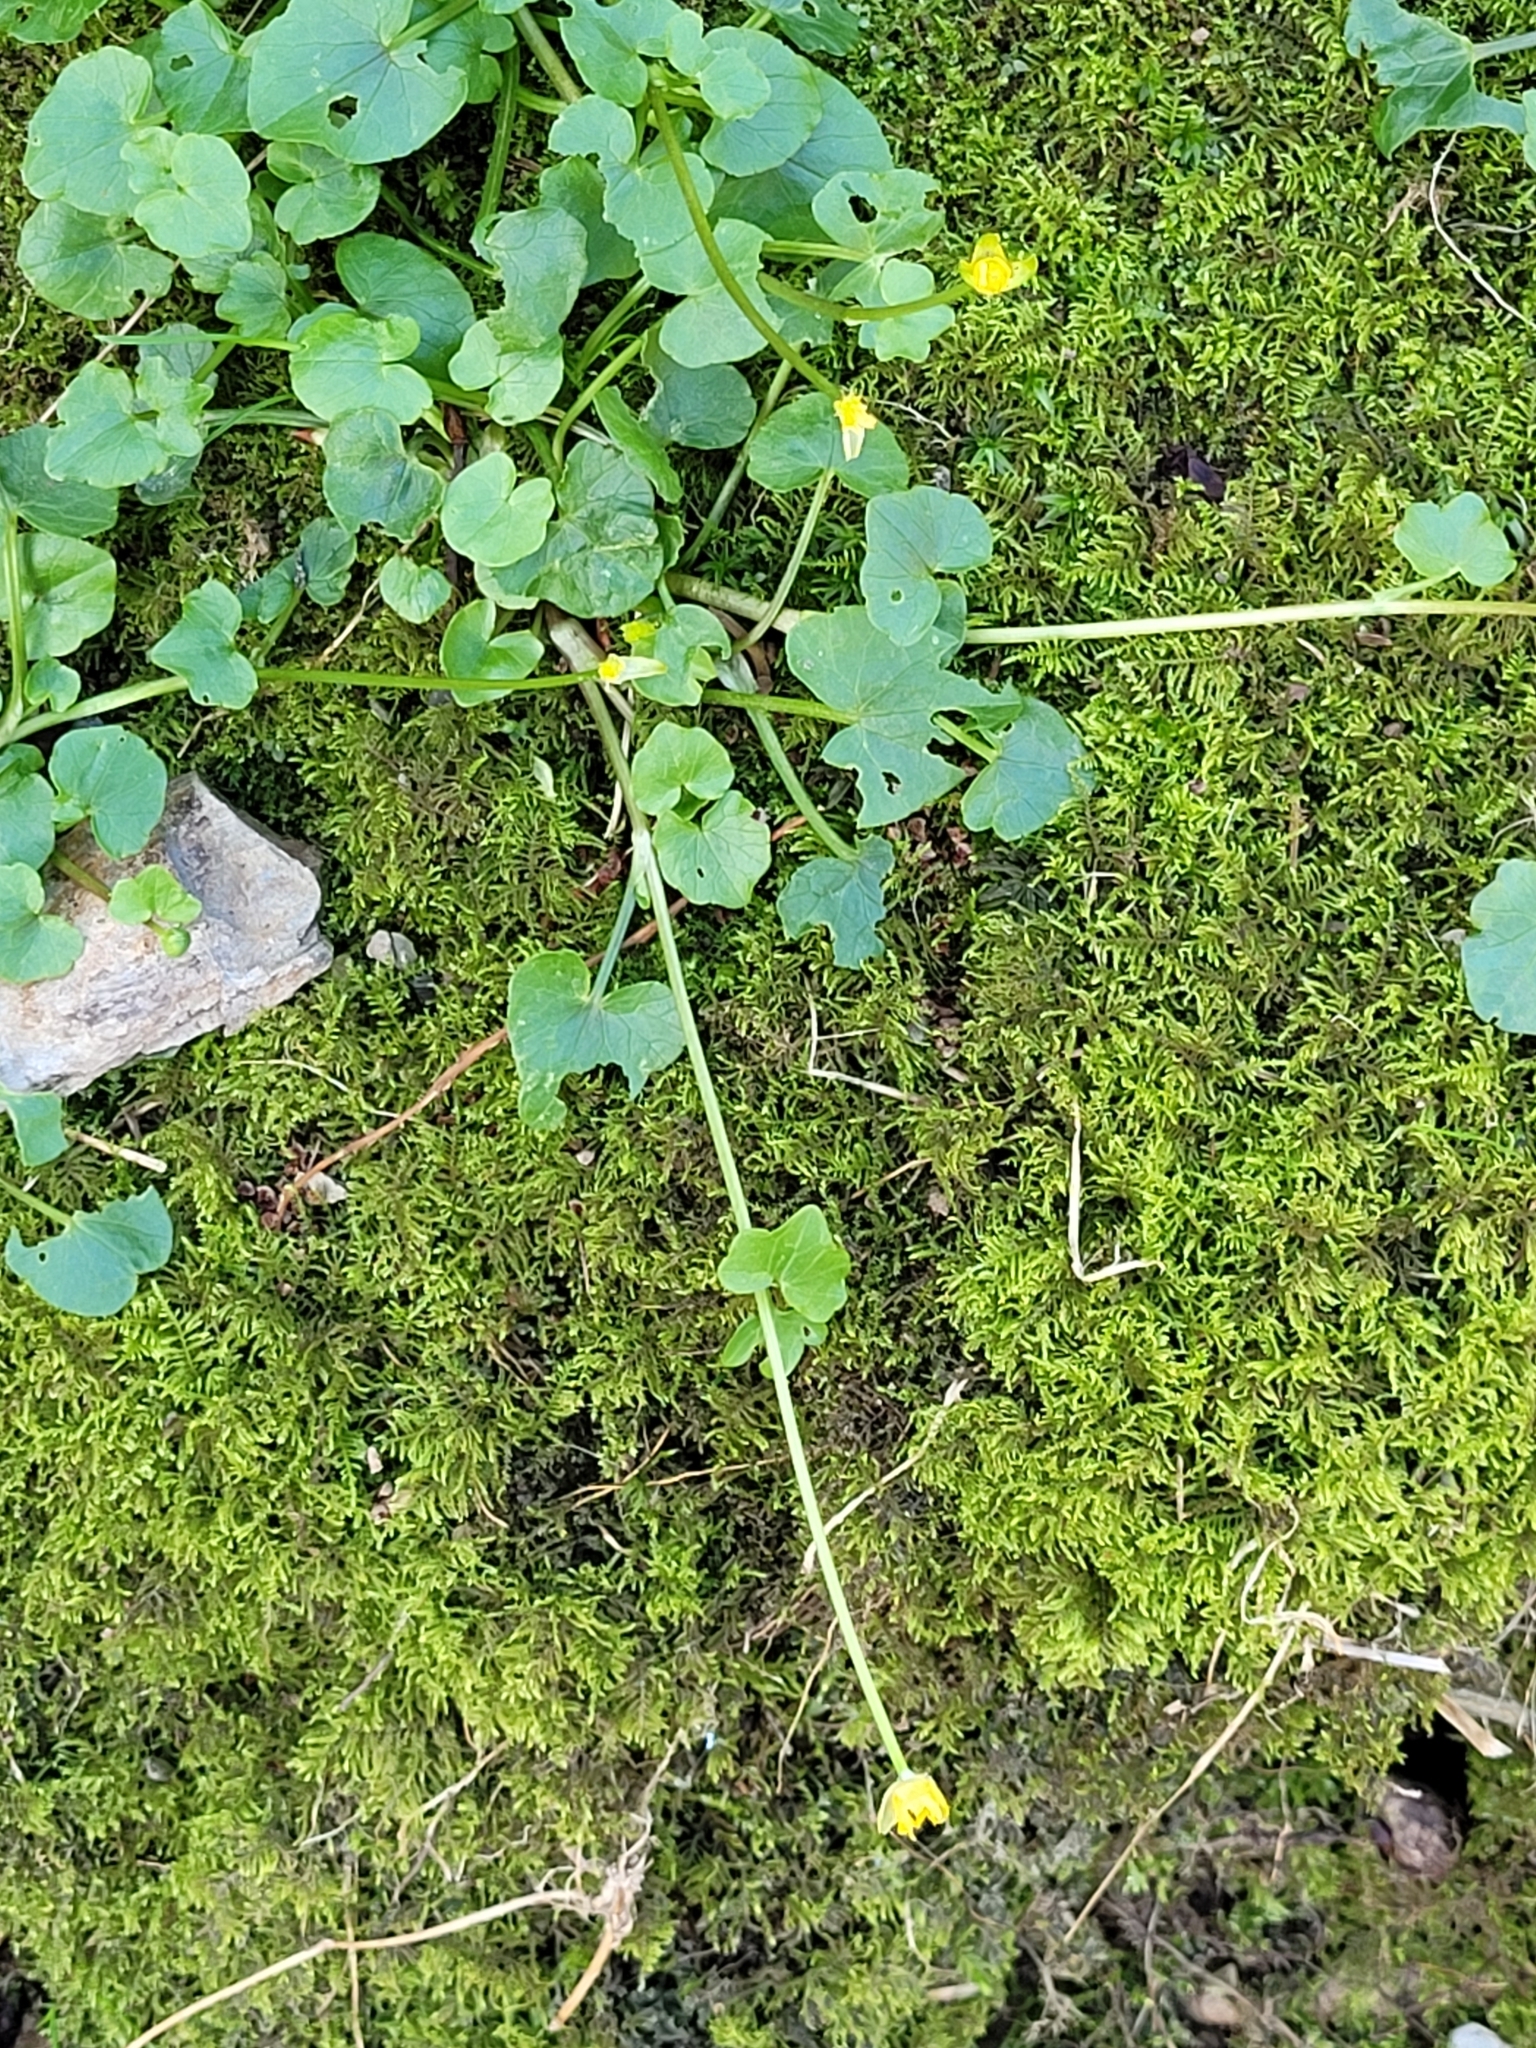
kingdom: Plantae
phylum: Tracheophyta
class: Magnoliopsida
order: Ranunculales
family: Ranunculaceae
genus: Ficaria
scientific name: Ficaria verna
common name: Lesser celandine
